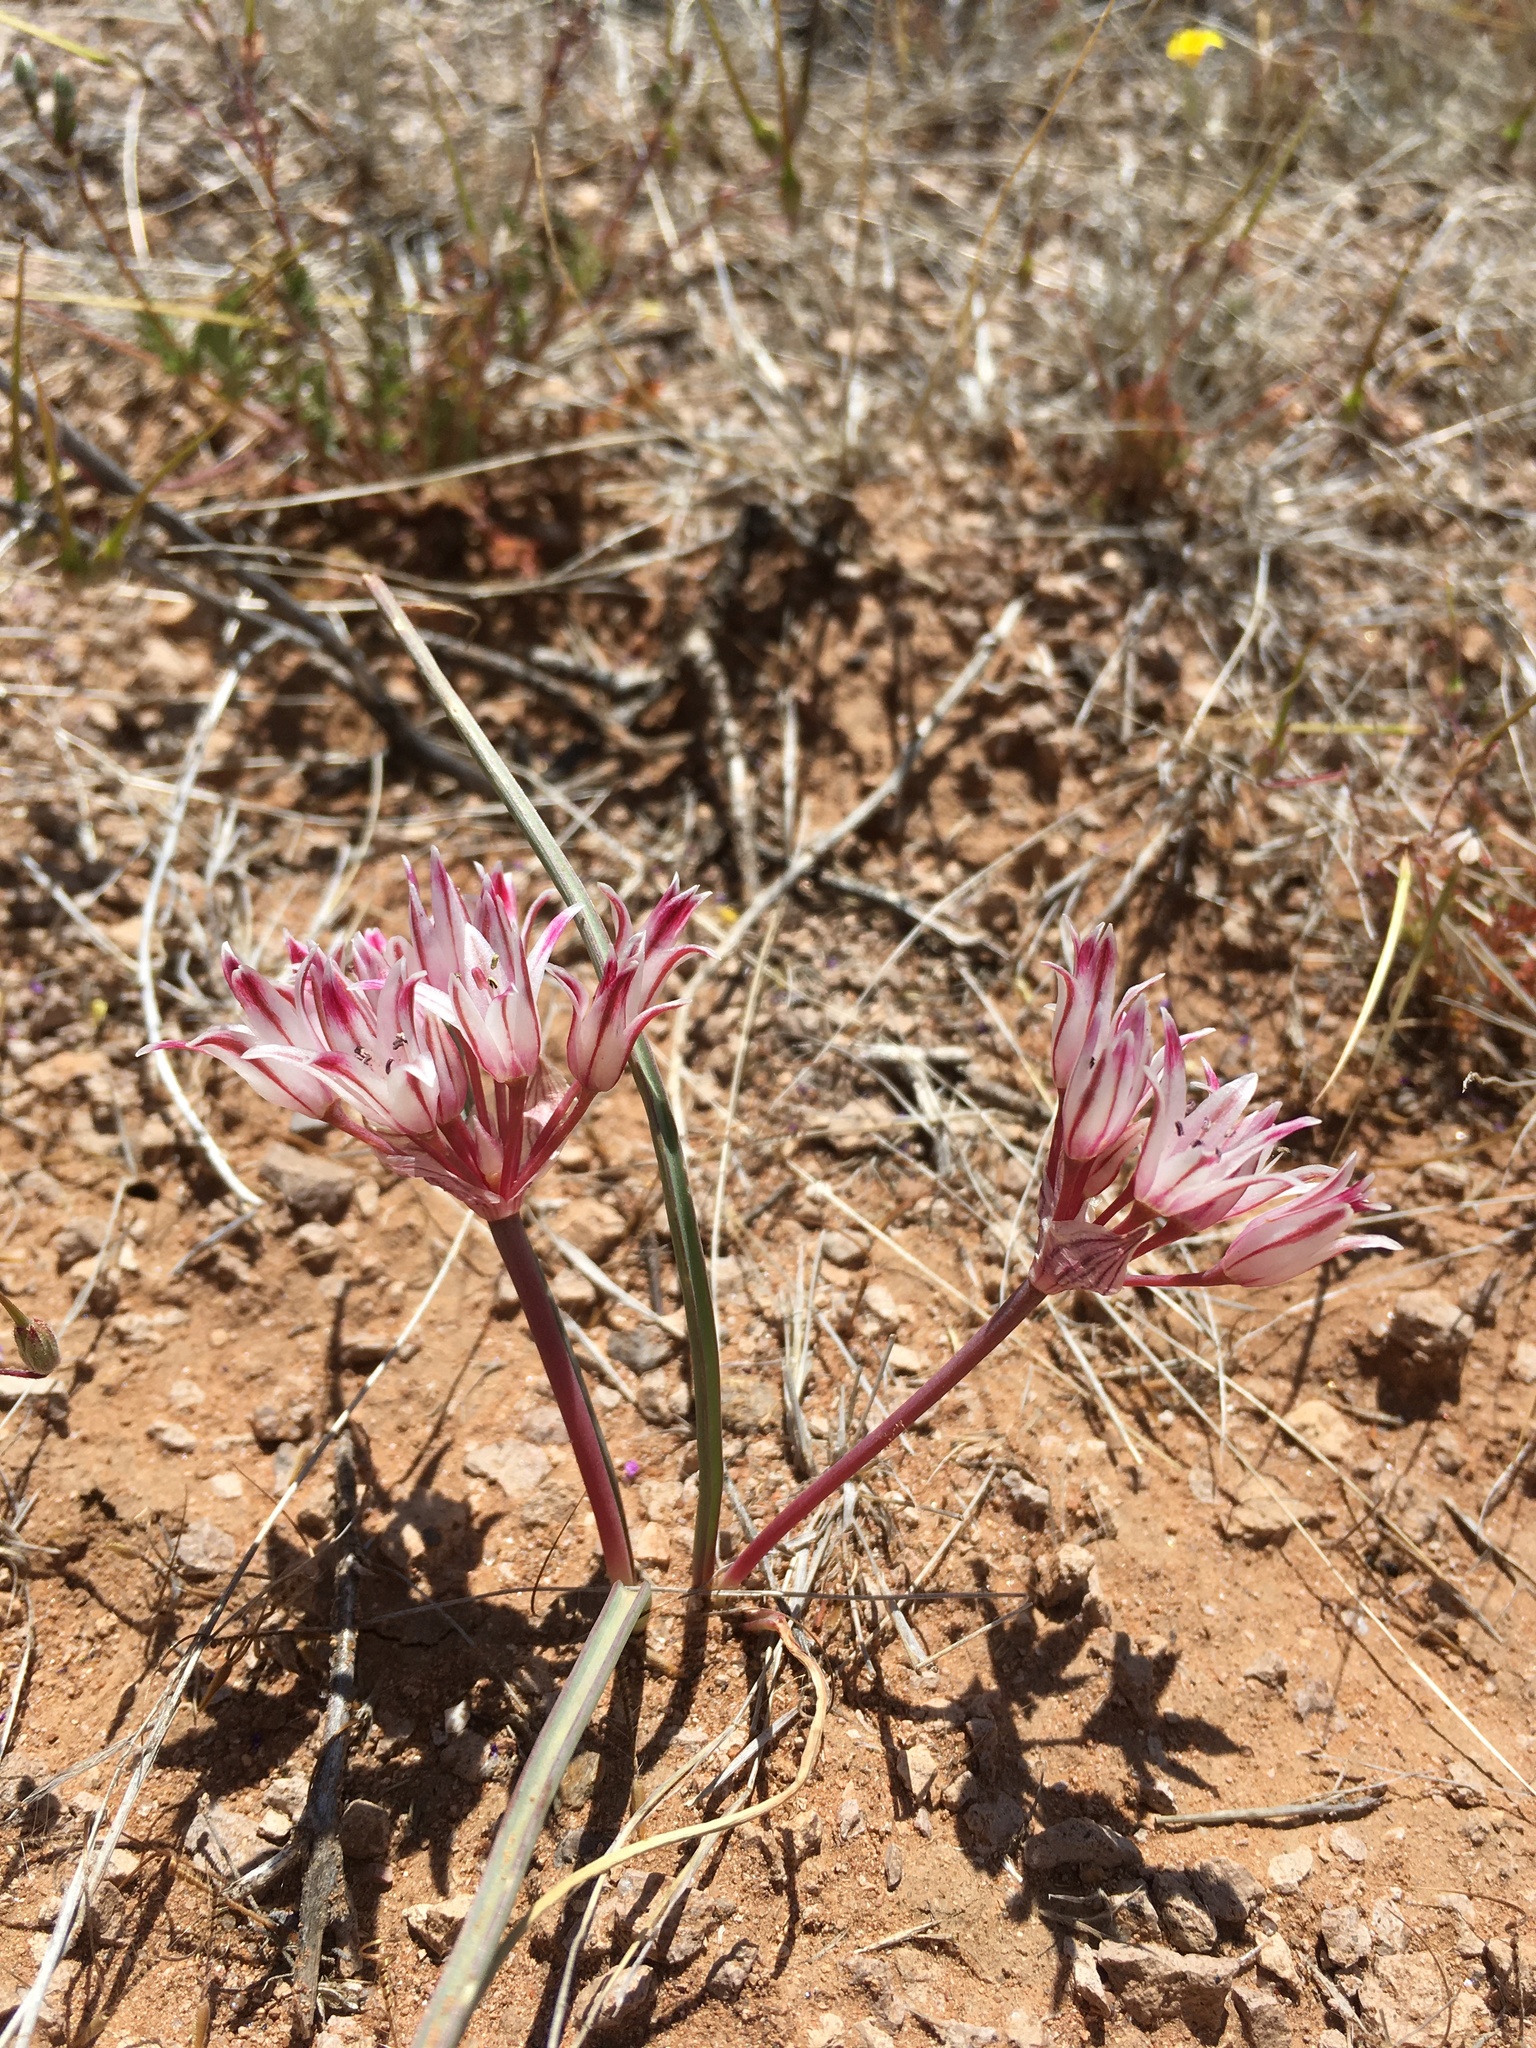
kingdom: Plantae
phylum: Tracheophyta
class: Liliopsida
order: Asparagales
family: Amaryllidaceae
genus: Allium
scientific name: Allium bigelovii
